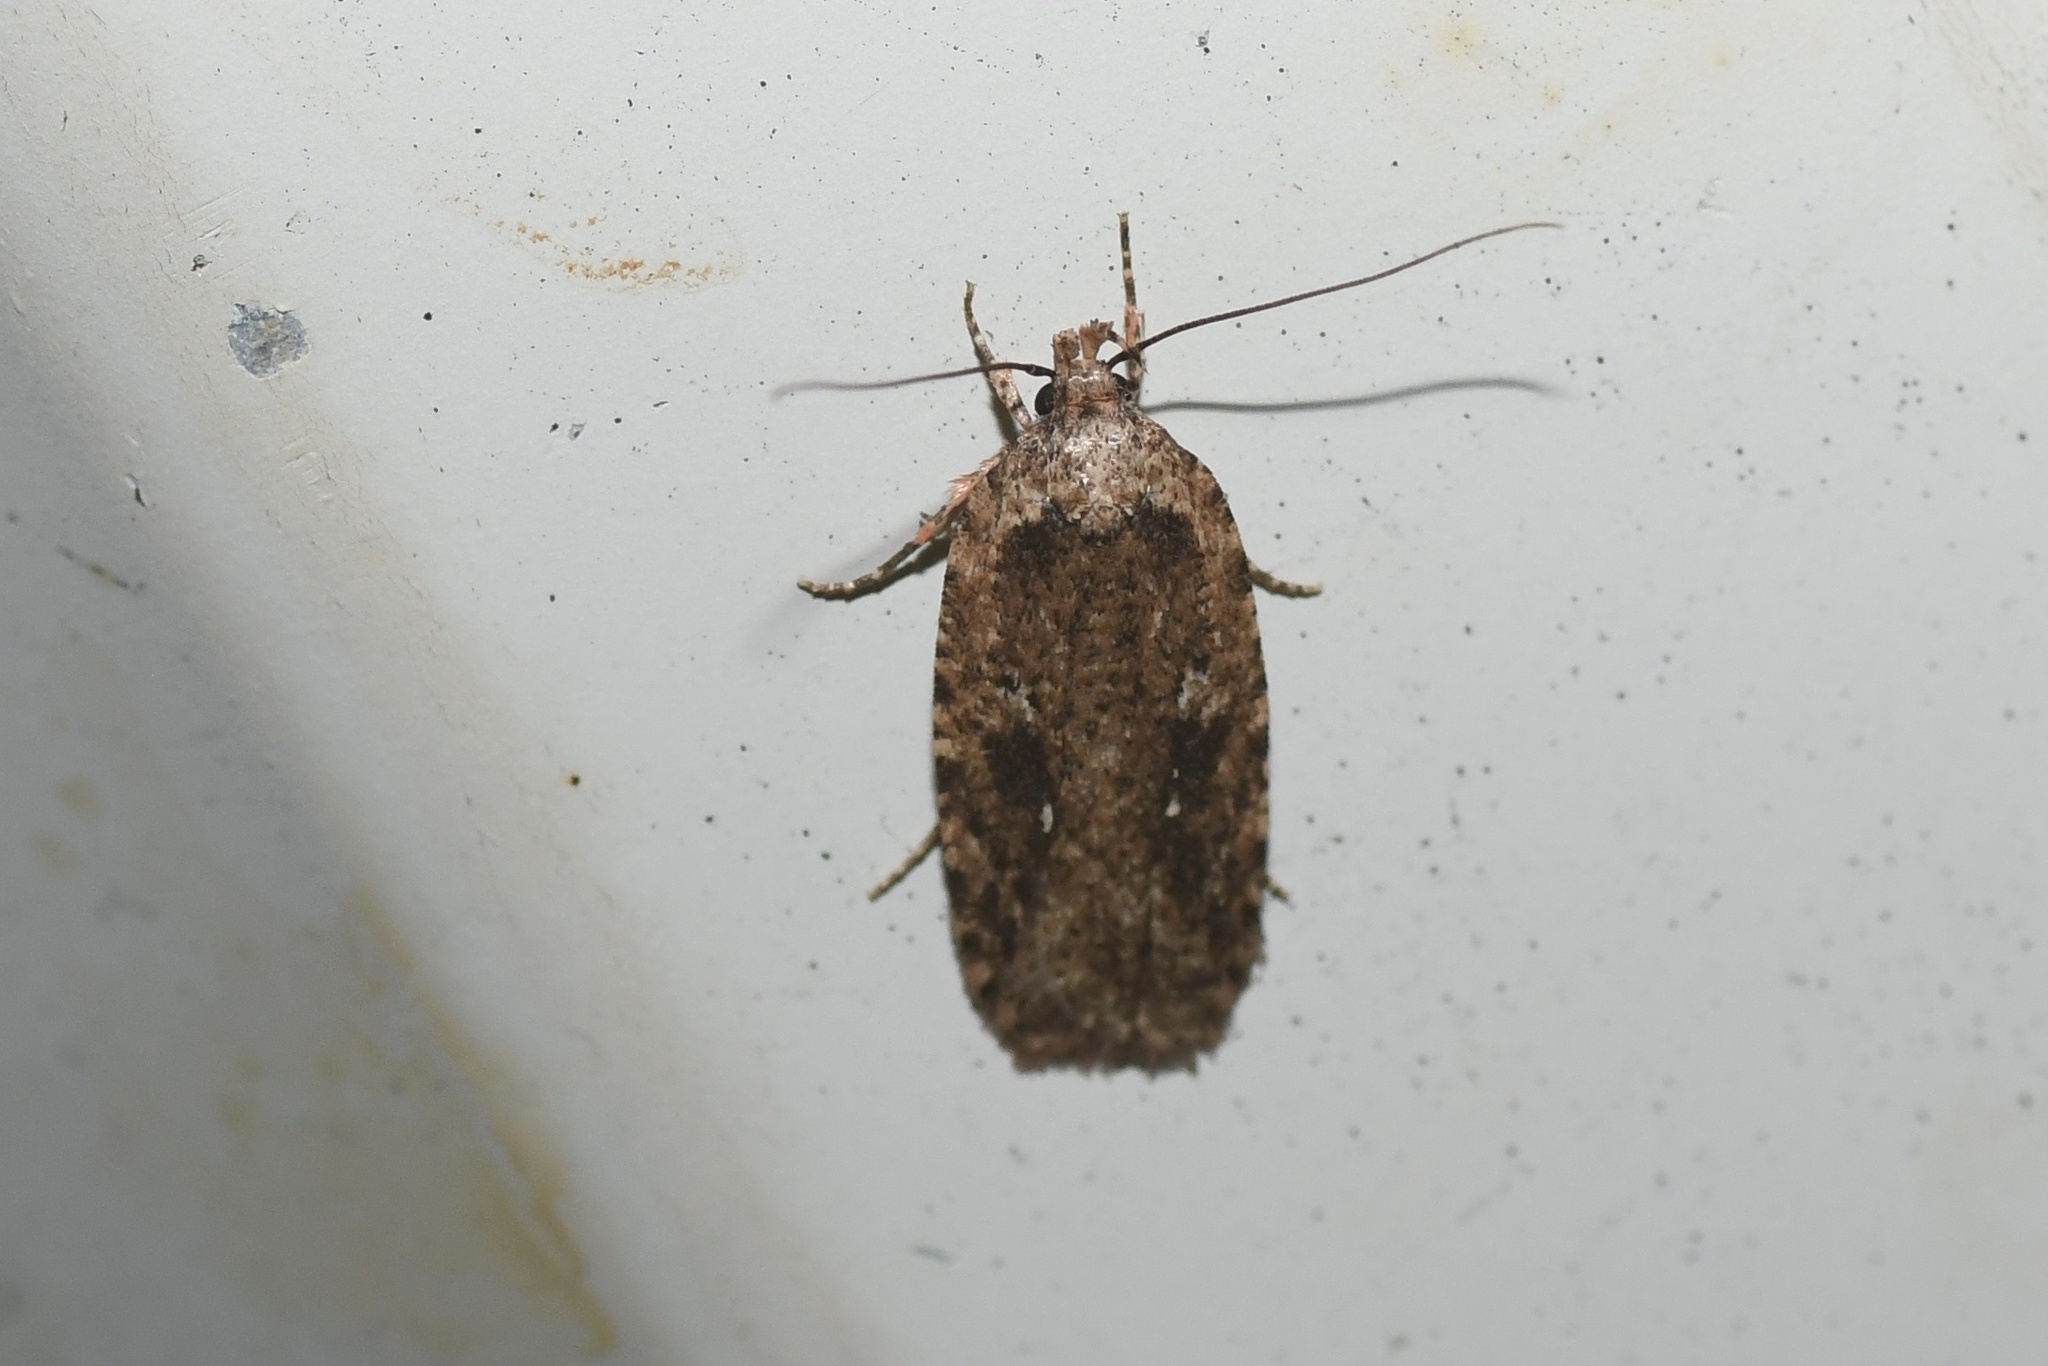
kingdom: Animalia
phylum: Arthropoda
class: Insecta
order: Lepidoptera
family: Depressariidae
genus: Agonopterix
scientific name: Agonopterix pulvipennella
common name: Goldenrod leafffolder
